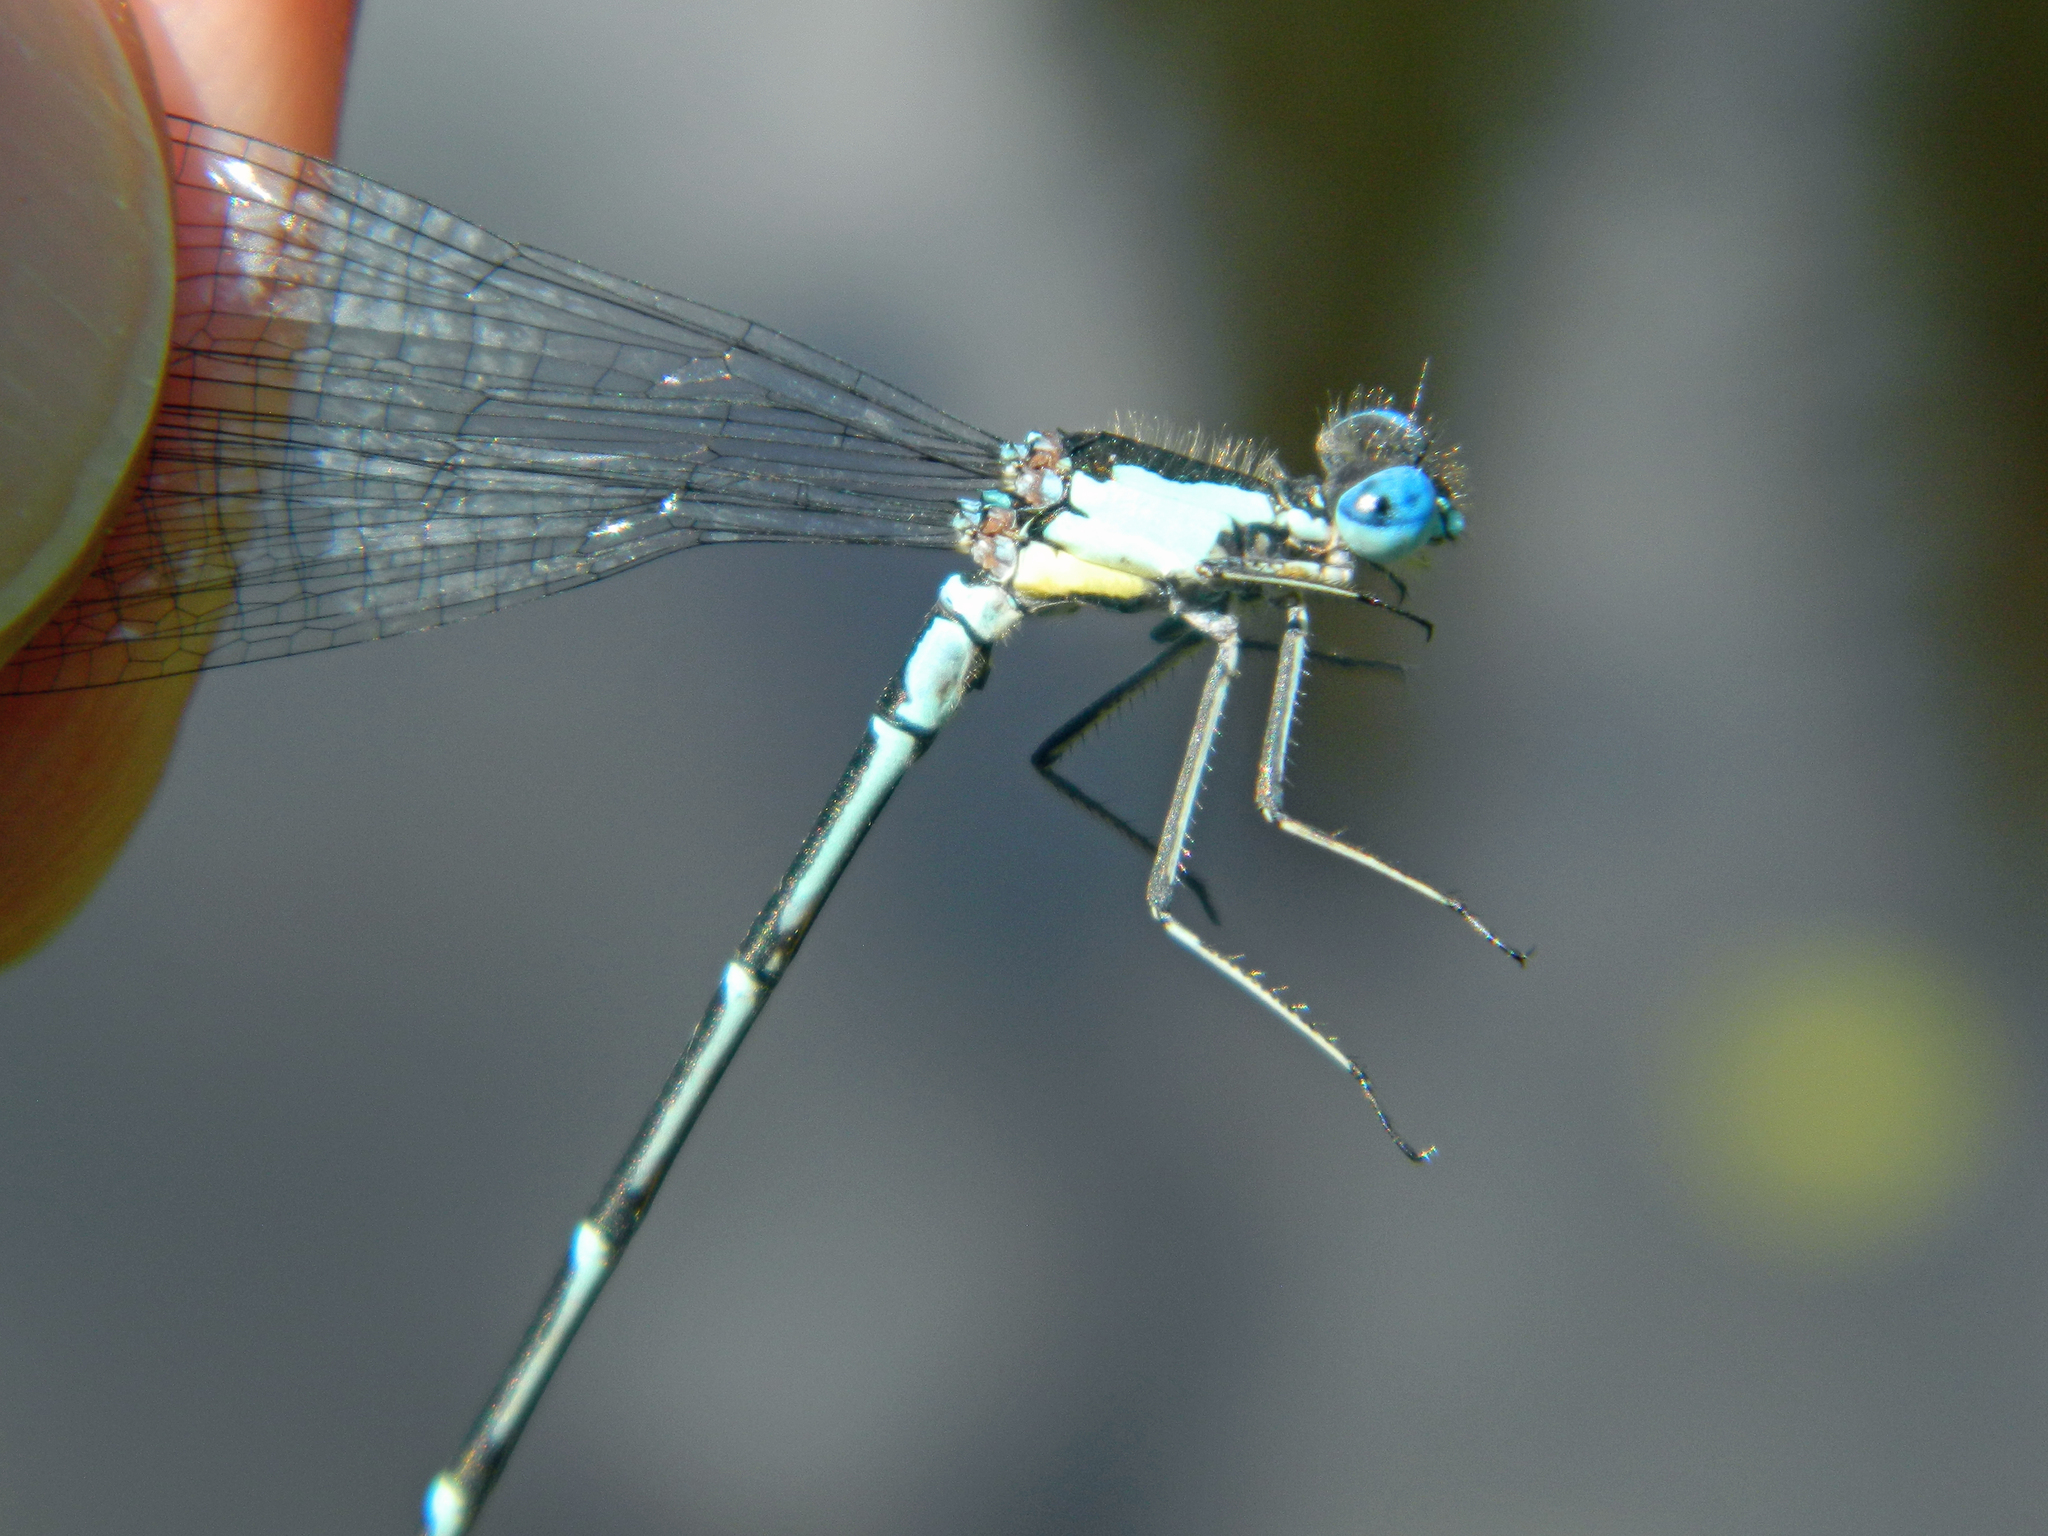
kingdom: Animalia
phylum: Arthropoda
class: Insecta
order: Odonata
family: Coenagrionidae
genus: Chromagrion
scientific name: Chromagrion conditum
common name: Aurora damsel
